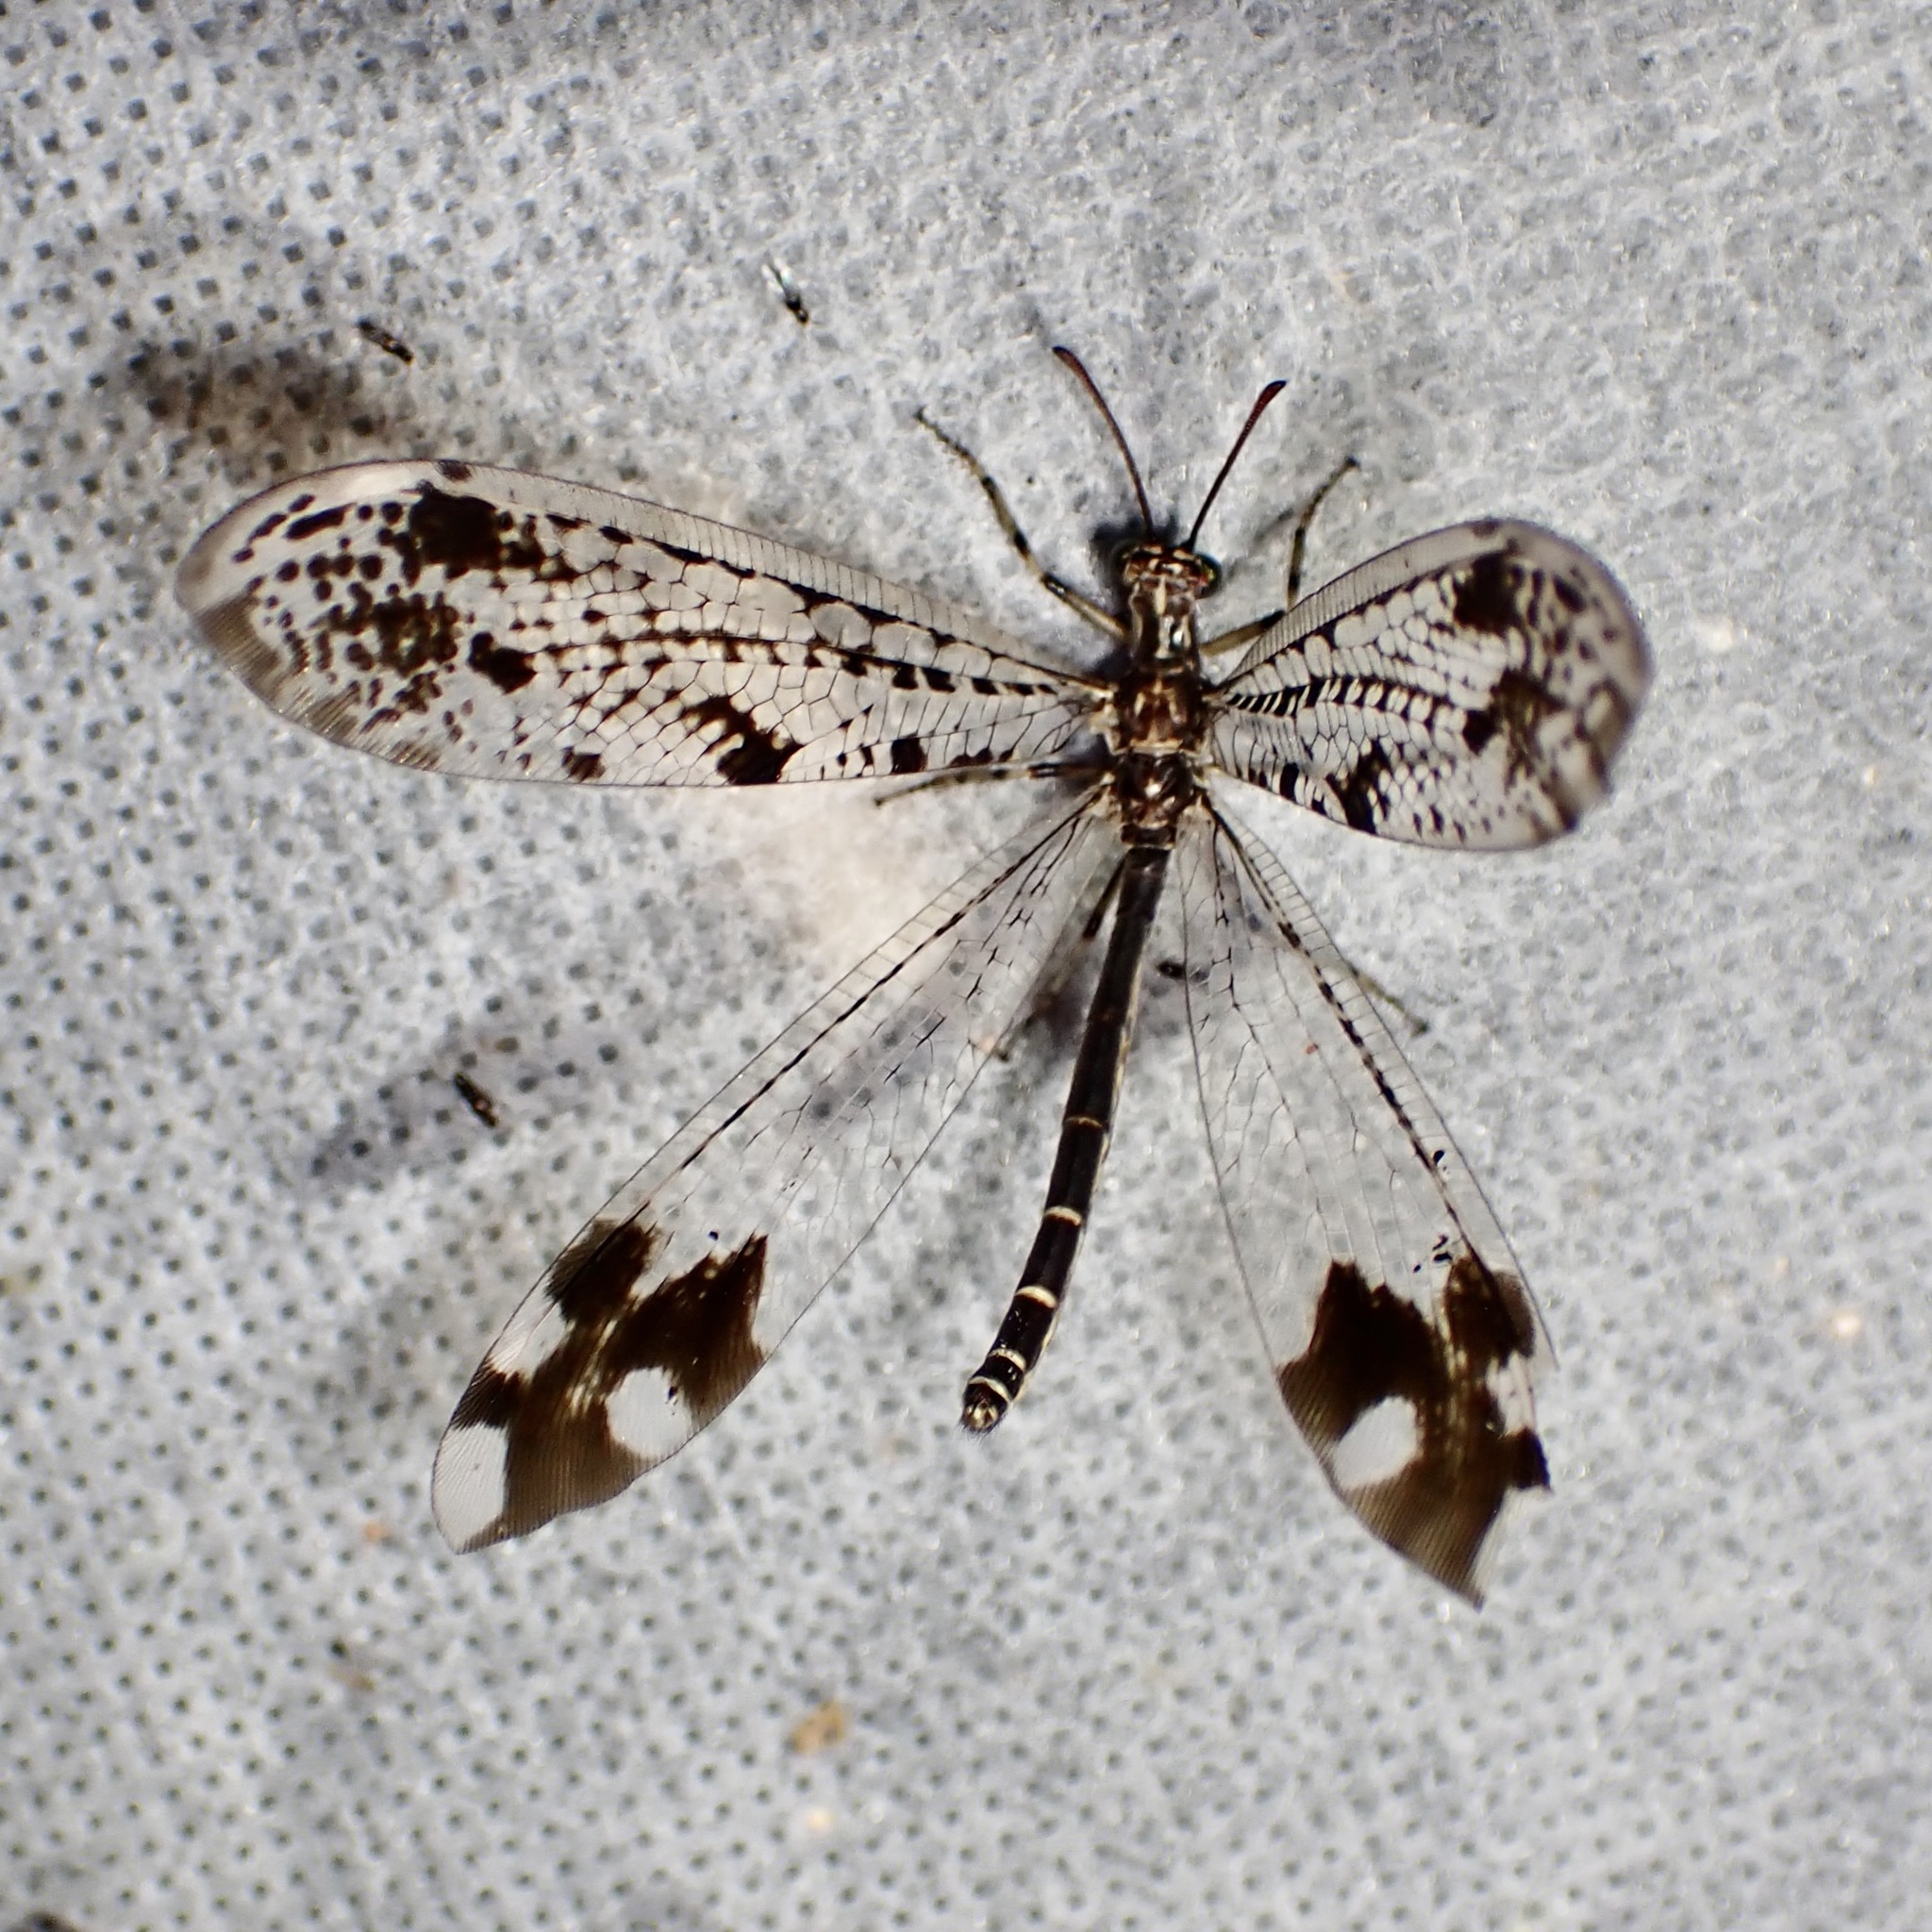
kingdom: Animalia
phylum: Arthropoda
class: Insecta
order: Neuroptera
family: Myrmeleontidae
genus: Glenurus
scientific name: Glenurus snowii
